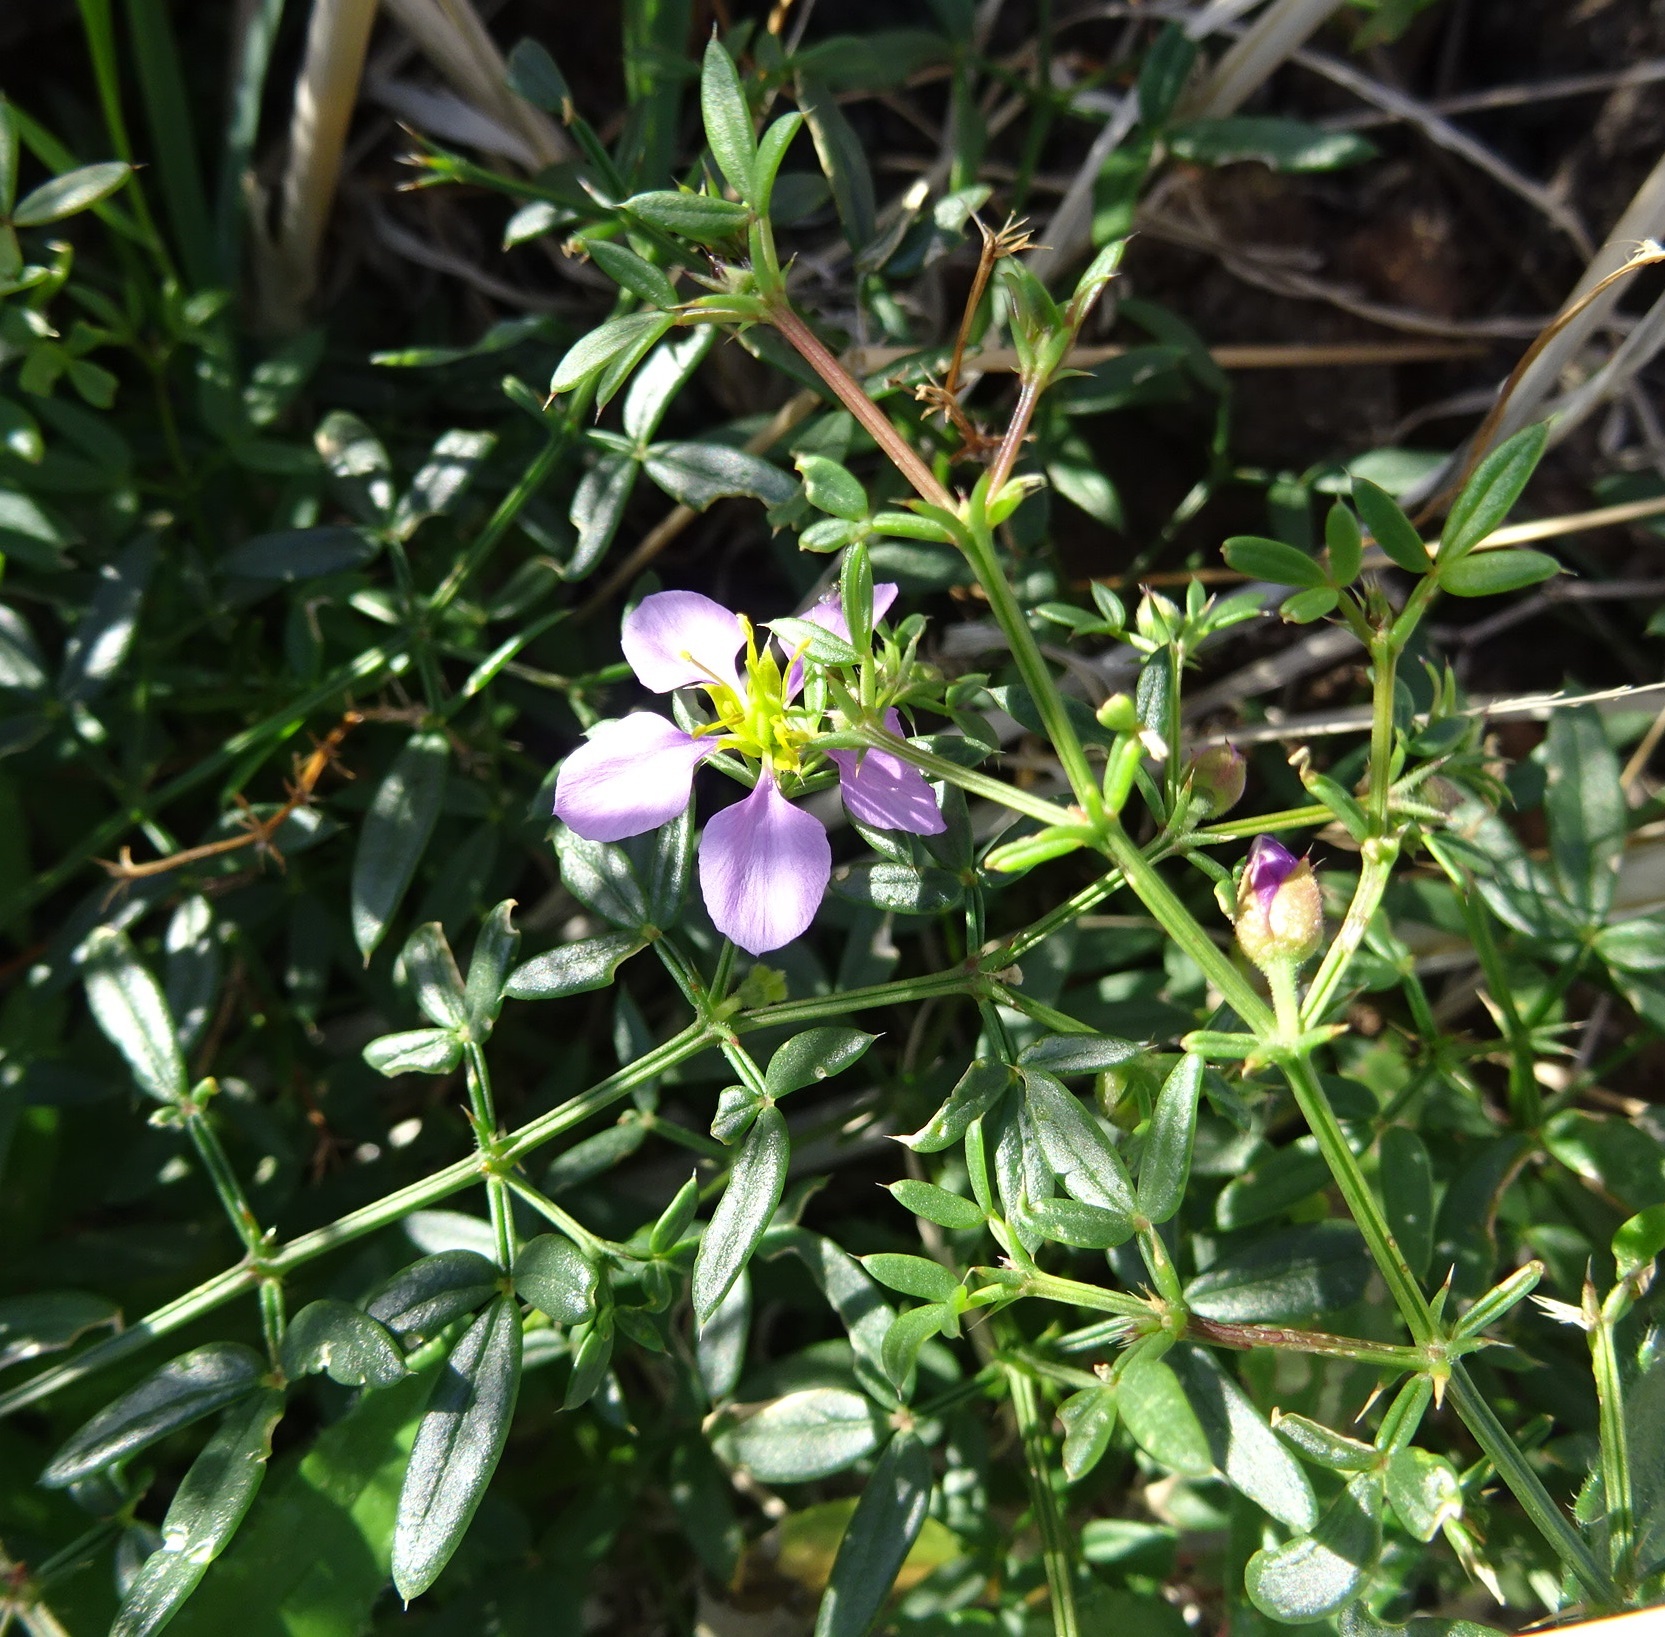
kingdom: Plantae
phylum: Tracheophyta
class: Magnoliopsida
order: Zygophyllales
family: Zygophyllaceae
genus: Fagonia
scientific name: Fagonia cretica
